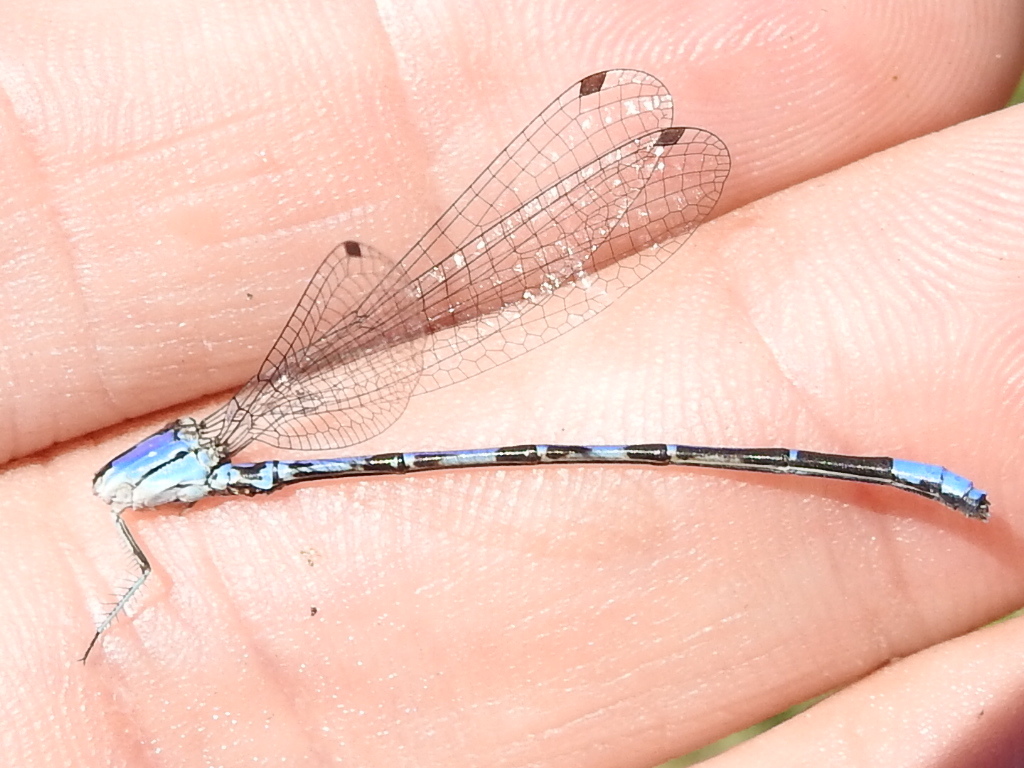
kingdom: Animalia
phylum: Arthropoda
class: Insecta
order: Odonata
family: Coenagrionidae
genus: Argia
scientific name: Argia extranea
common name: Spine-tipped dancer
